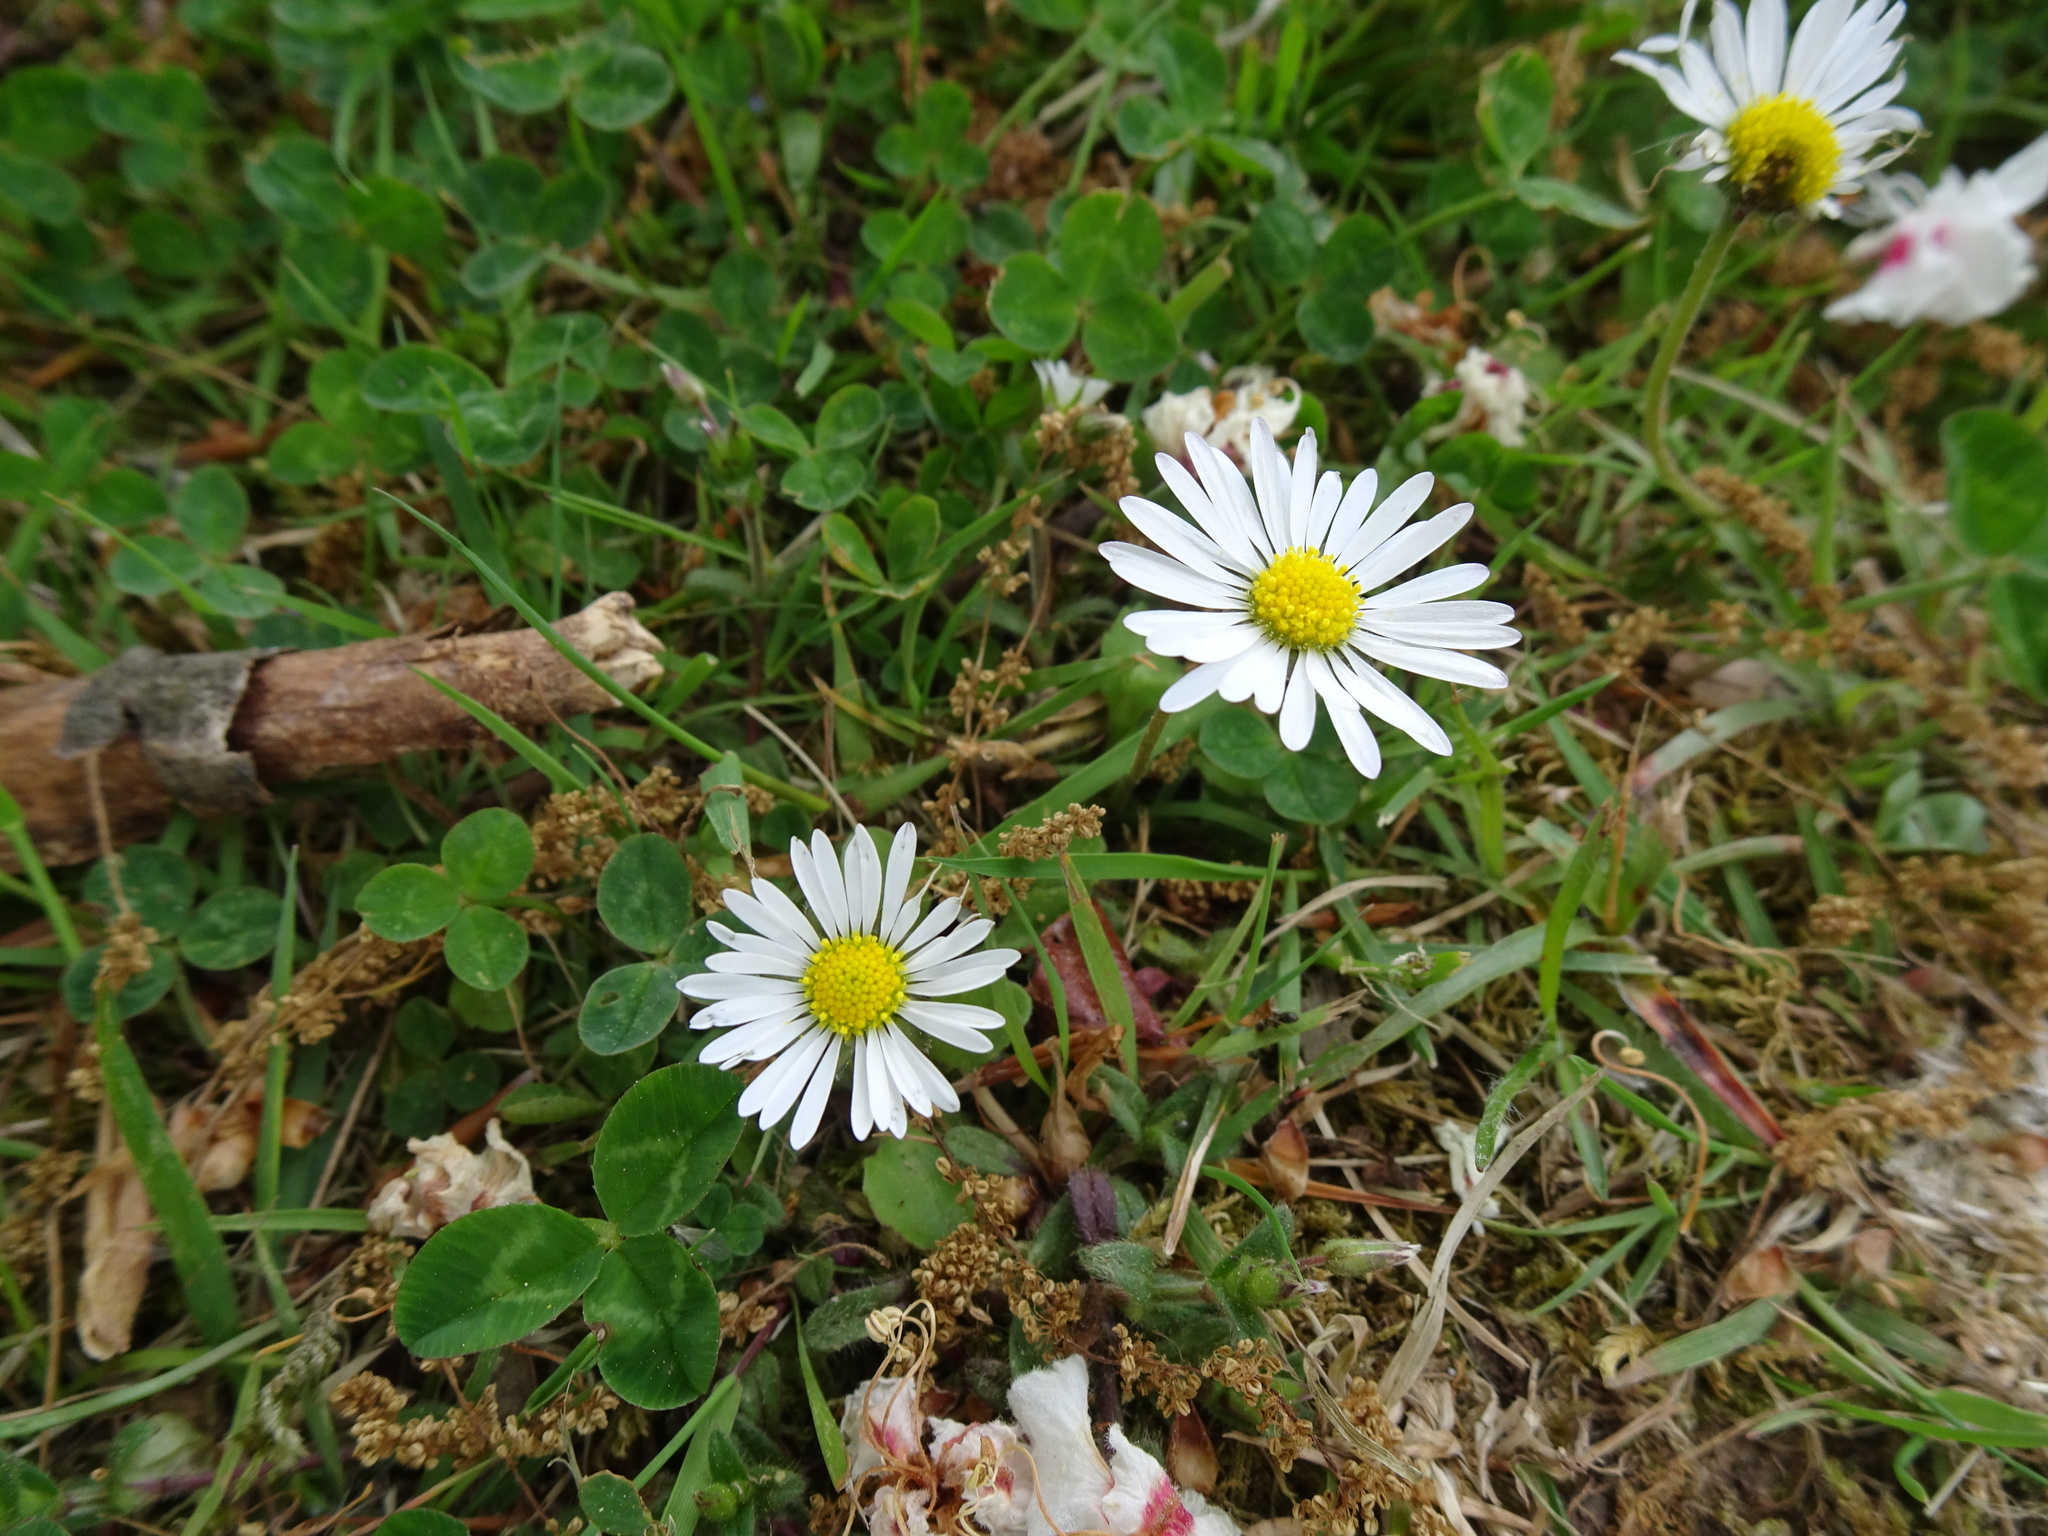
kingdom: Plantae
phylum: Tracheophyta
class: Magnoliopsida
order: Asterales
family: Asteraceae
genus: Bellis
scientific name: Bellis perennis
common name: Lawndaisy
